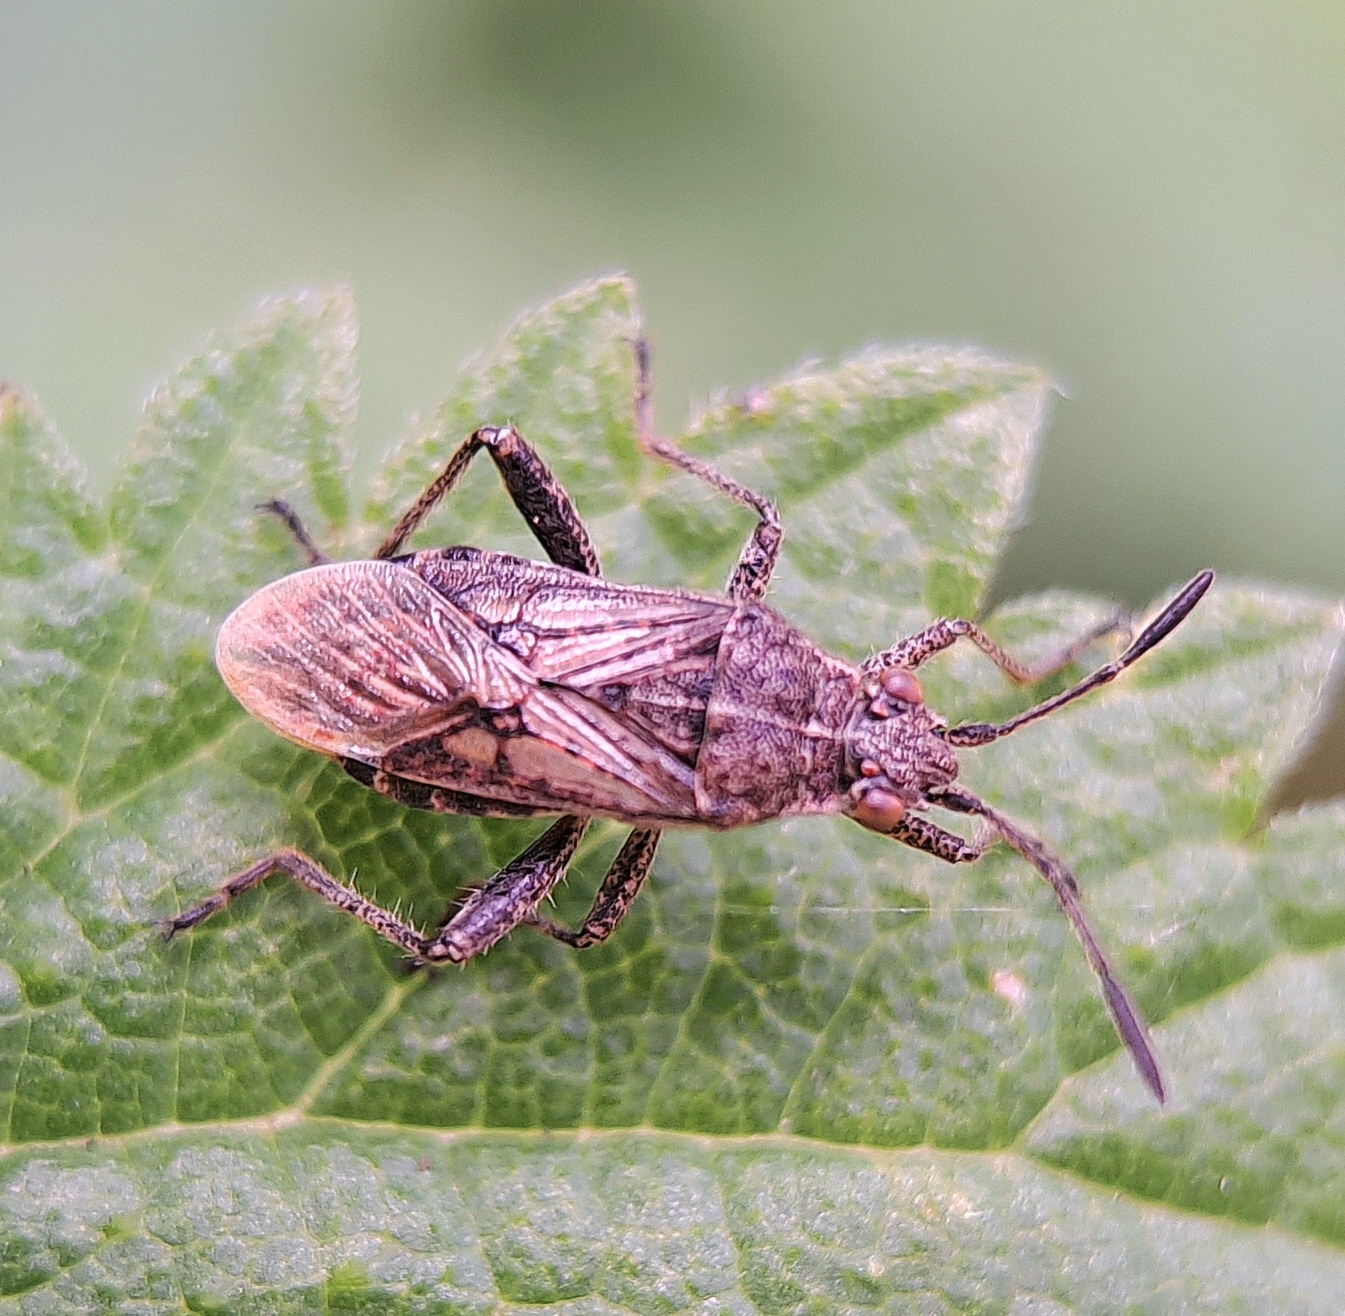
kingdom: Animalia
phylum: Arthropoda
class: Insecta
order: Hemiptera
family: Rhopalidae
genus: Stictopleurus
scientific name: Stictopleurus punctatonervosus
